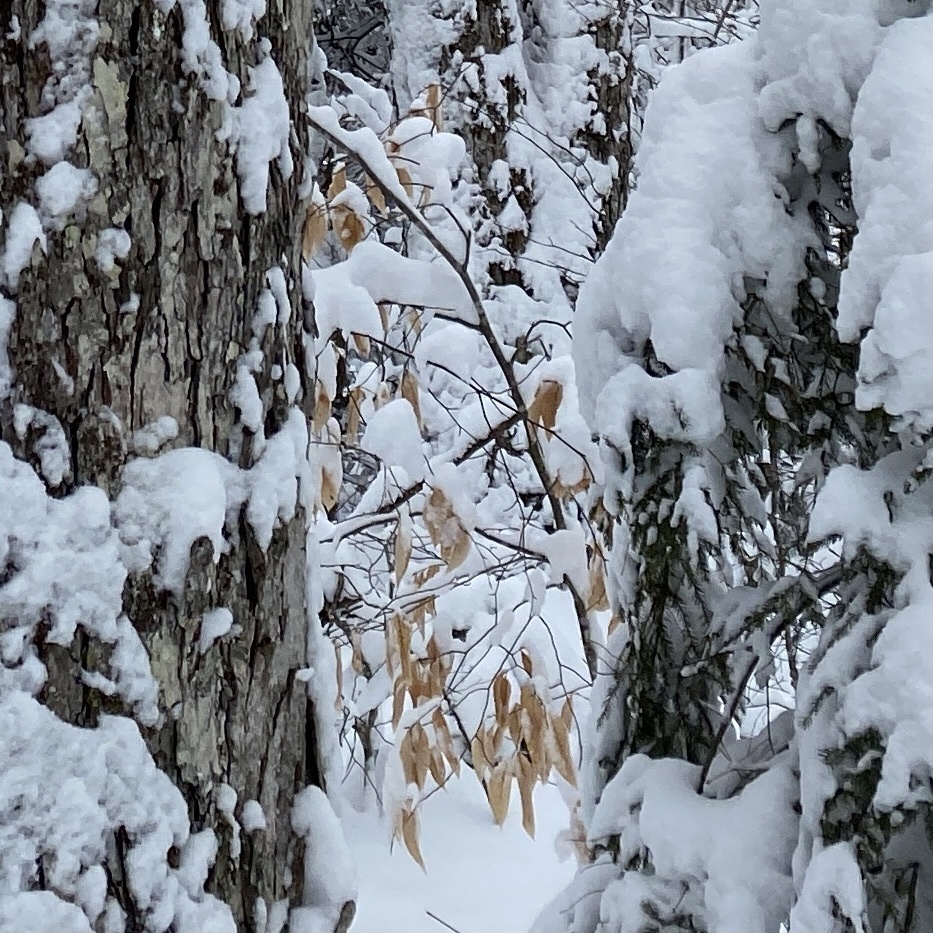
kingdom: Plantae
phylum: Tracheophyta
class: Magnoliopsida
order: Fagales
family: Fagaceae
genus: Fagus
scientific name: Fagus grandifolia
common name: American beech
